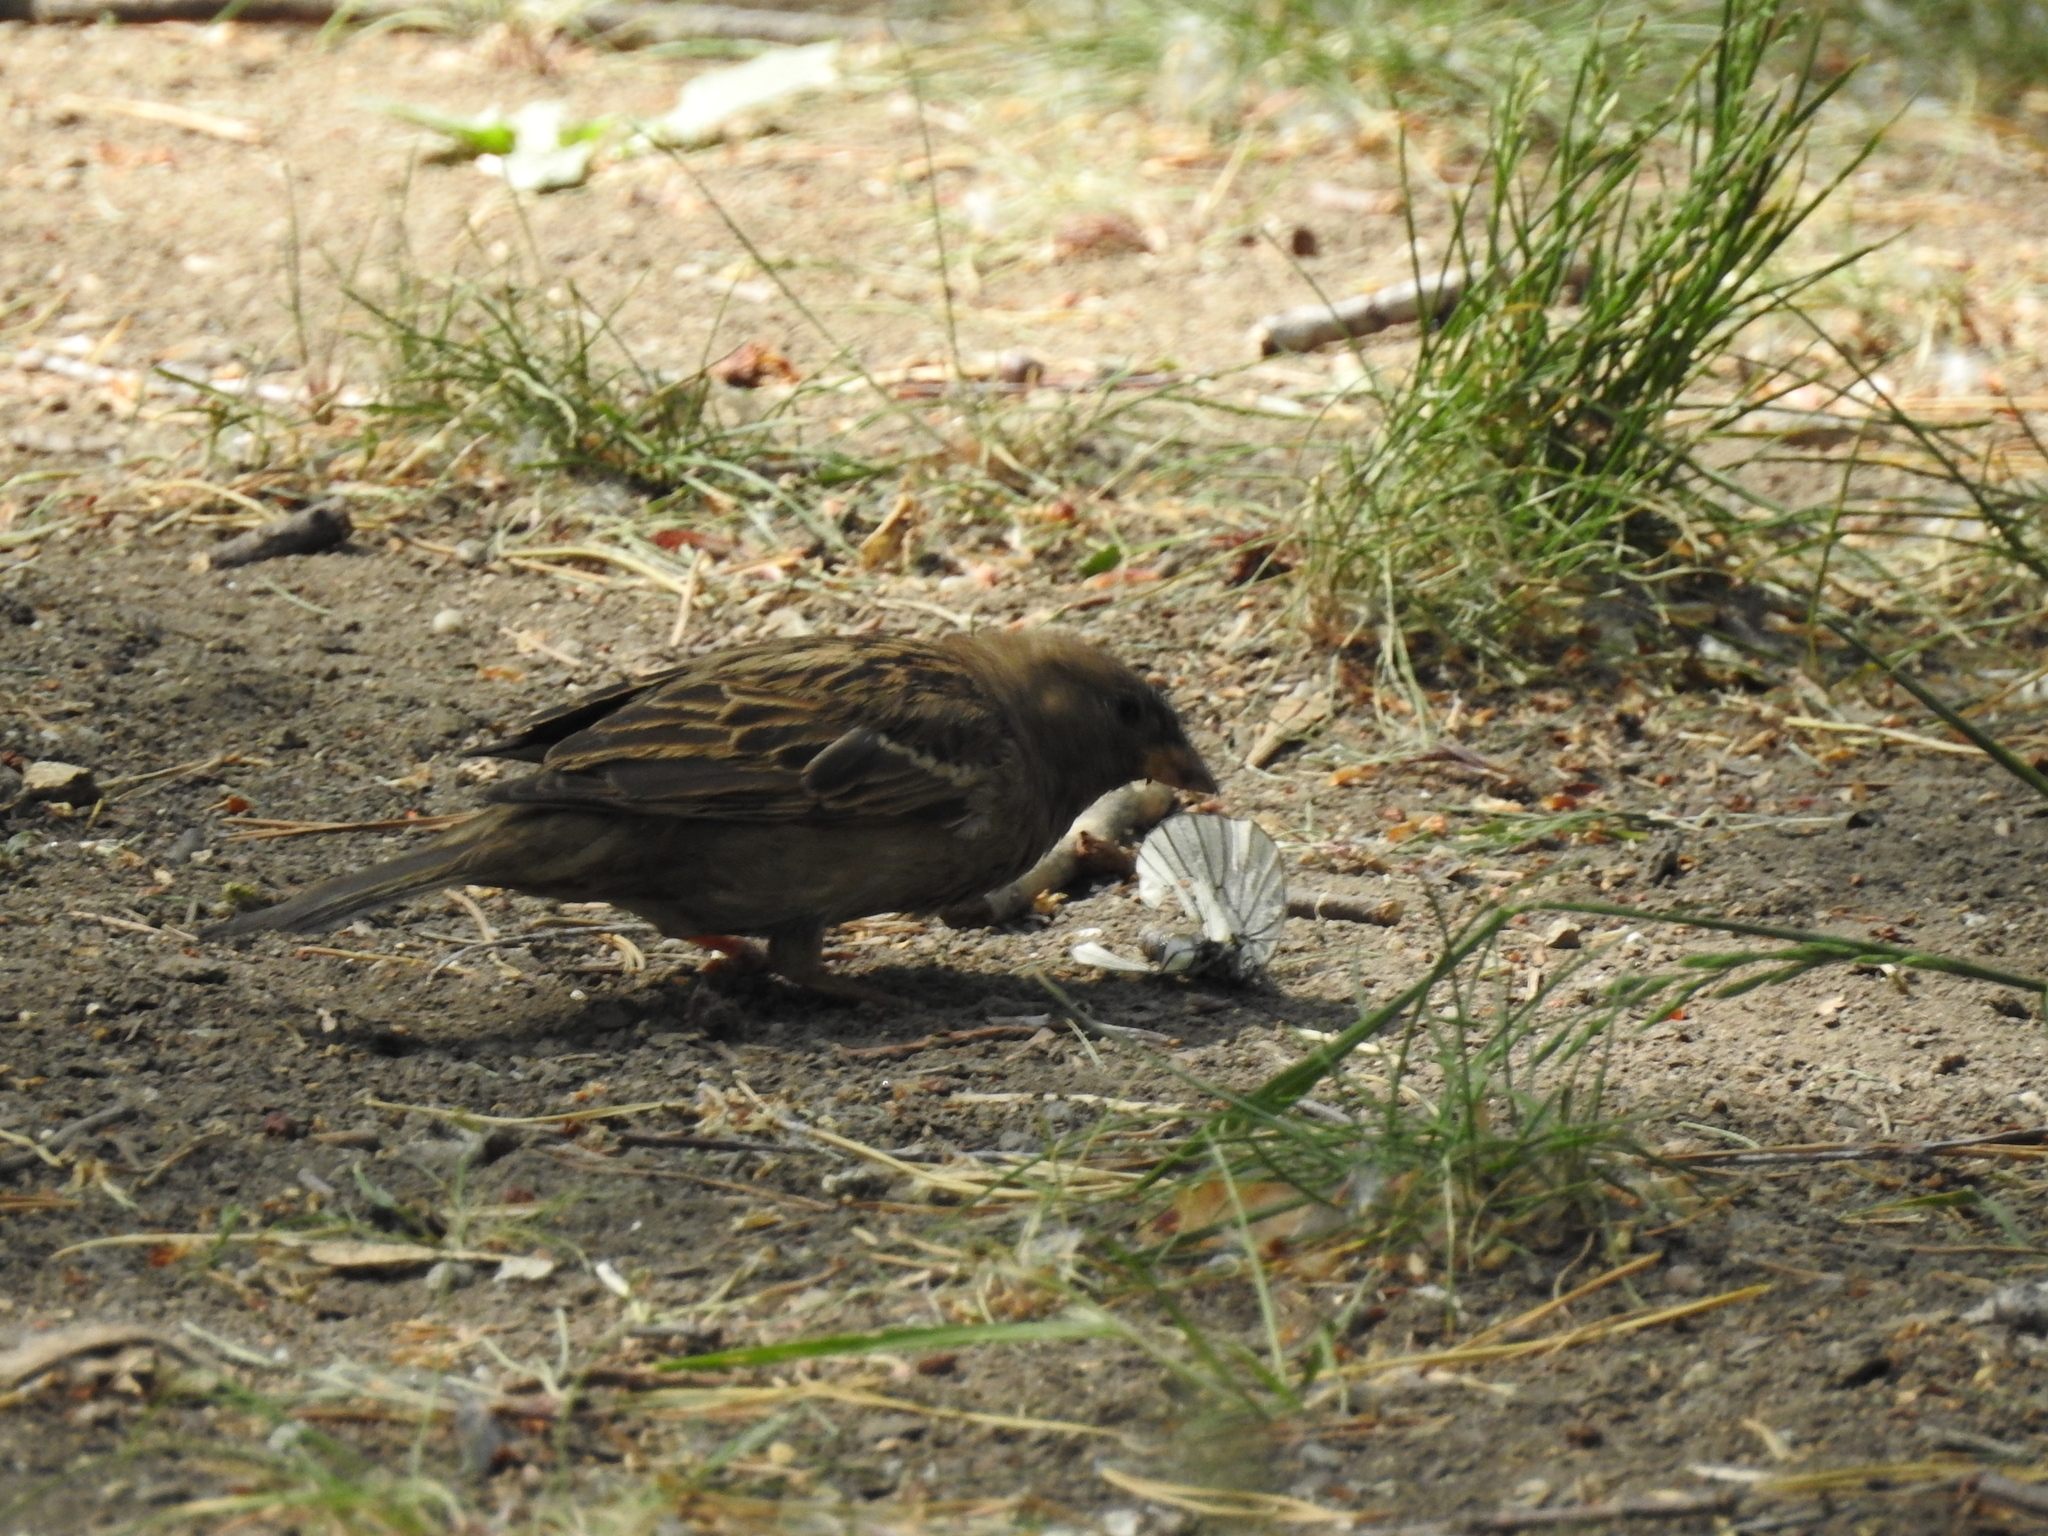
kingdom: Animalia
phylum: Chordata
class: Aves
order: Passeriformes
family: Passeridae
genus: Passer
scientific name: Passer domesticus
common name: House sparrow
